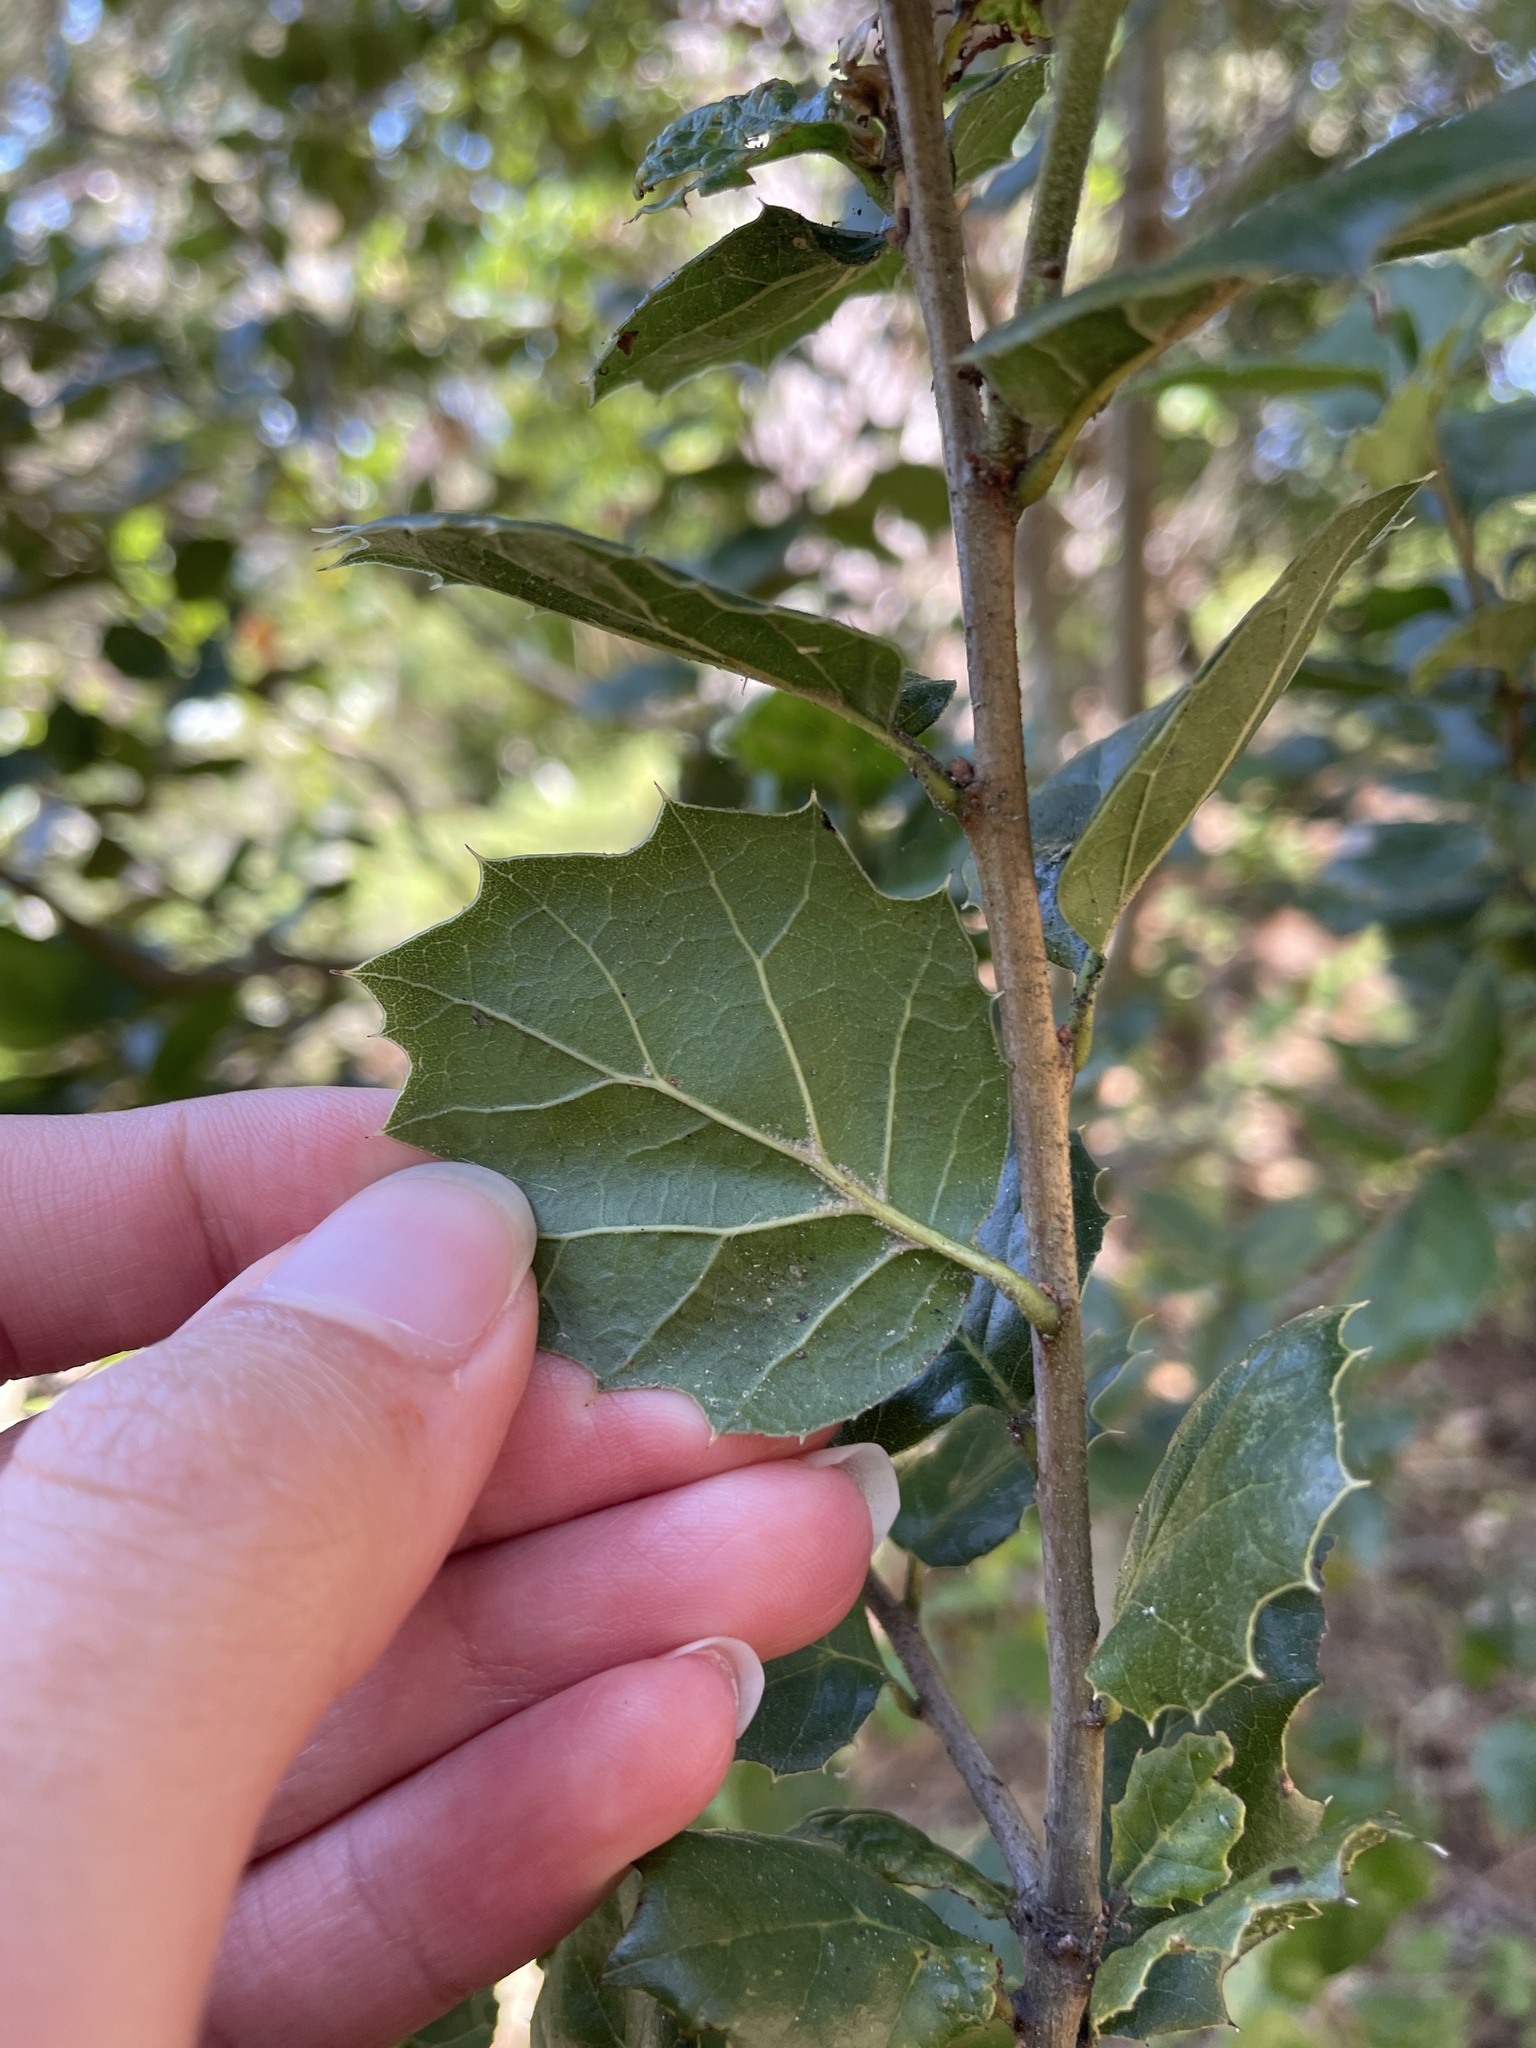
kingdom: Plantae
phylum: Tracheophyta
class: Magnoliopsida
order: Fagales
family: Fagaceae
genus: Quercus
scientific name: Quercus agrifolia
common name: California live oak
